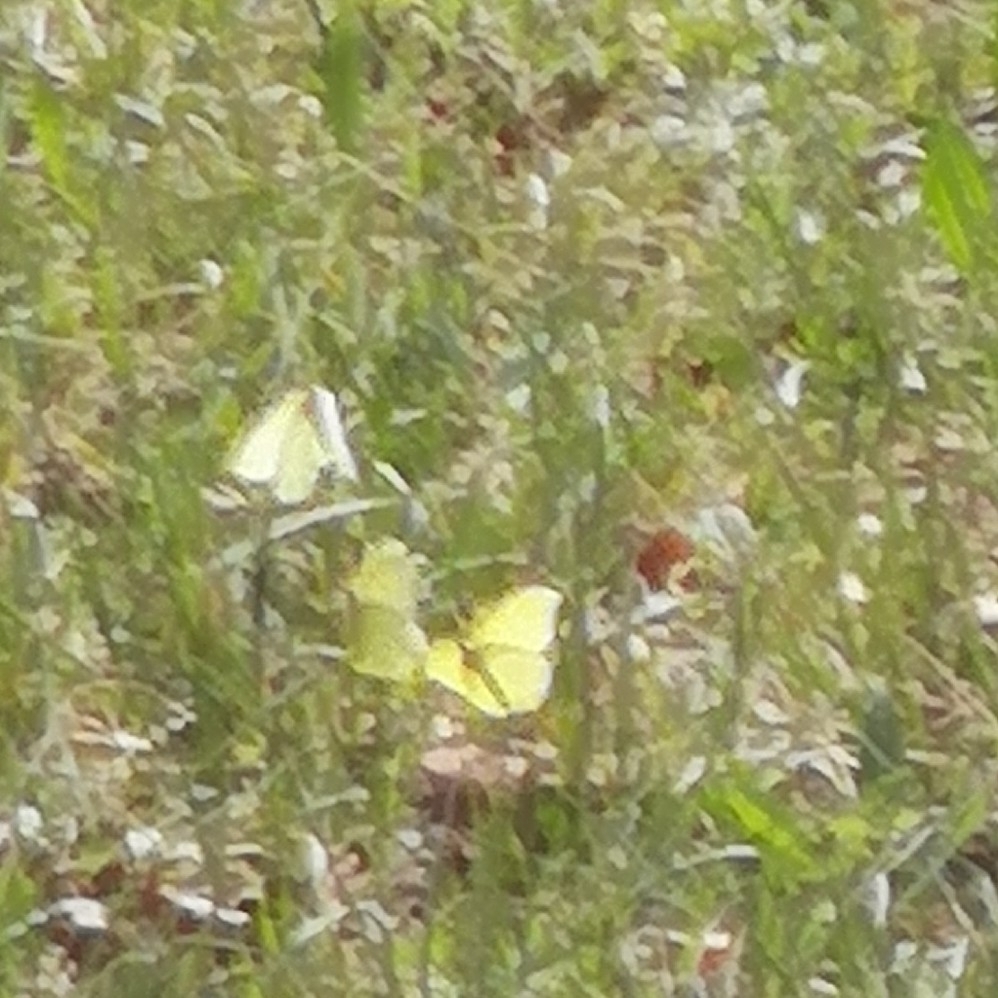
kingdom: Animalia
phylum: Arthropoda
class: Insecta
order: Lepidoptera
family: Pieridae
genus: Gonepteryx
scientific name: Gonepteryx rhamni
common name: Brimstone
